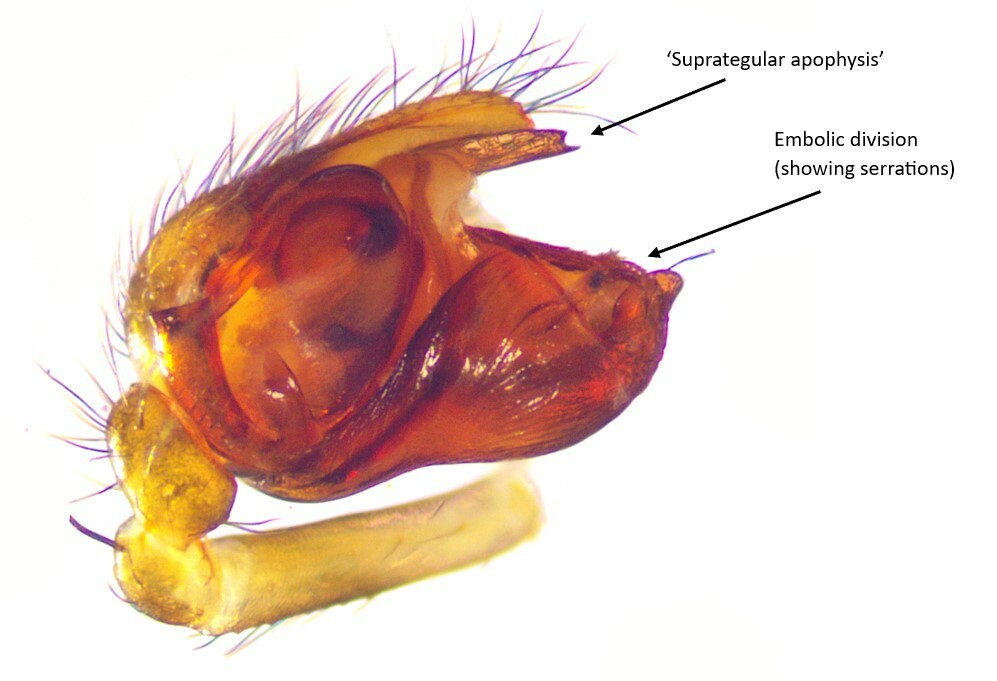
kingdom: Animalia
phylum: Arthropoda
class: Arachnida
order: Araneae
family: Linyphiidae
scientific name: Linyphiidae
